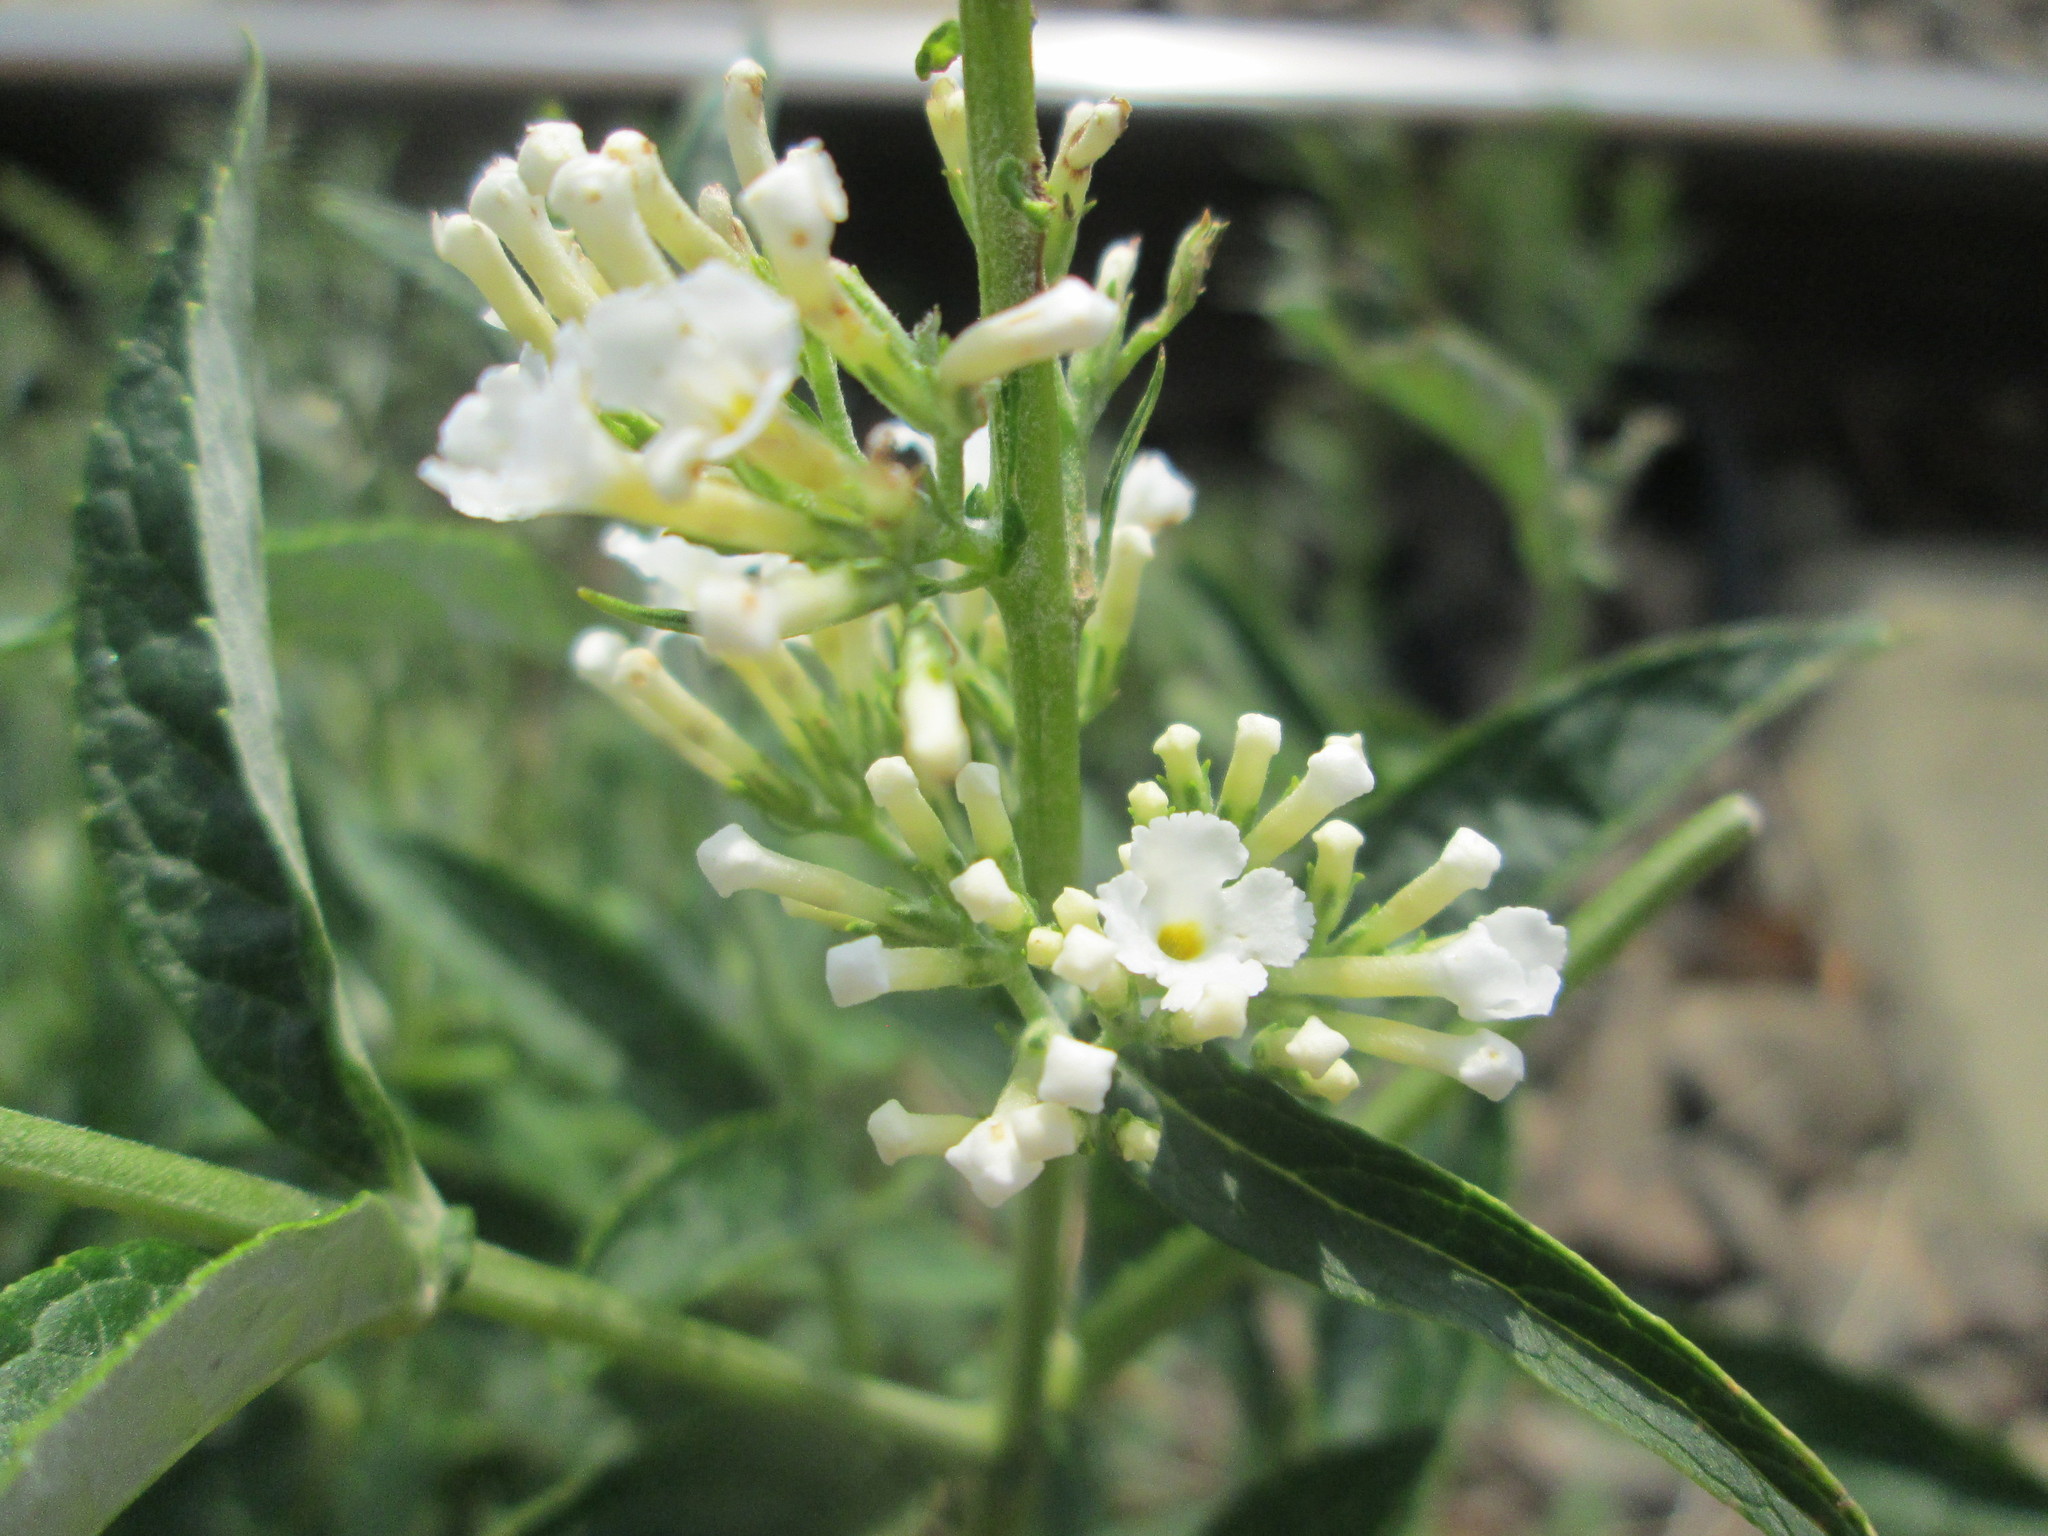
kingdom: Plantae
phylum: Tracheophyta
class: Magnoliopsida
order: Lamiales
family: Scrophulariaceae
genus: Buddleja
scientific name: Buddleja davidii
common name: Butterfly-bush
